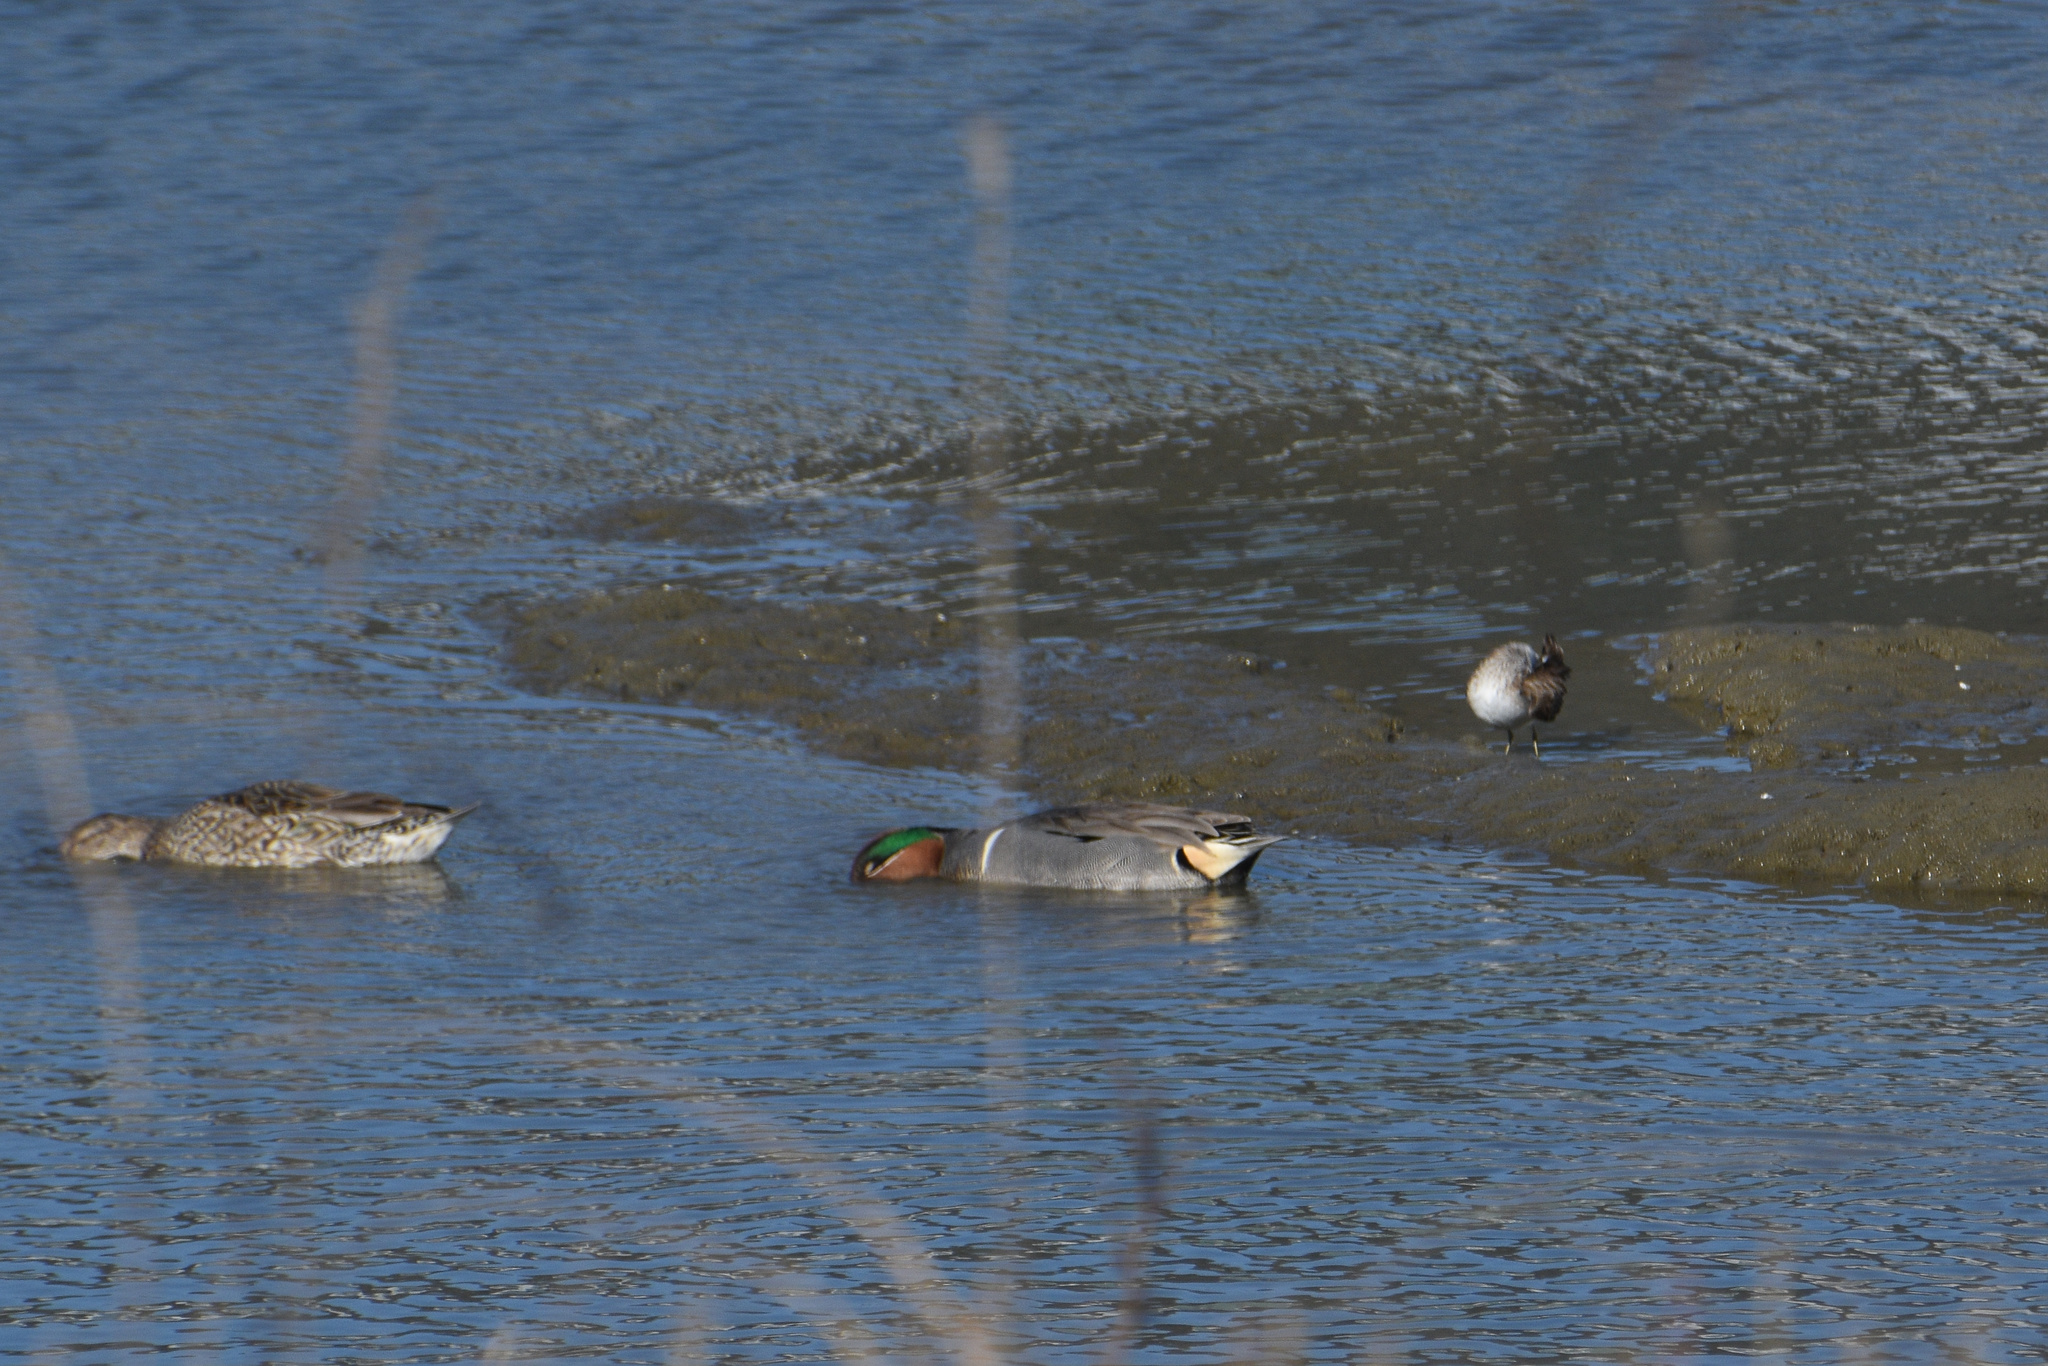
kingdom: Animalia
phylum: Chordata
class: Aves
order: Anseriformes
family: Anatidae
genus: Anas
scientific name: Anas crecca
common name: Eurasian teal
